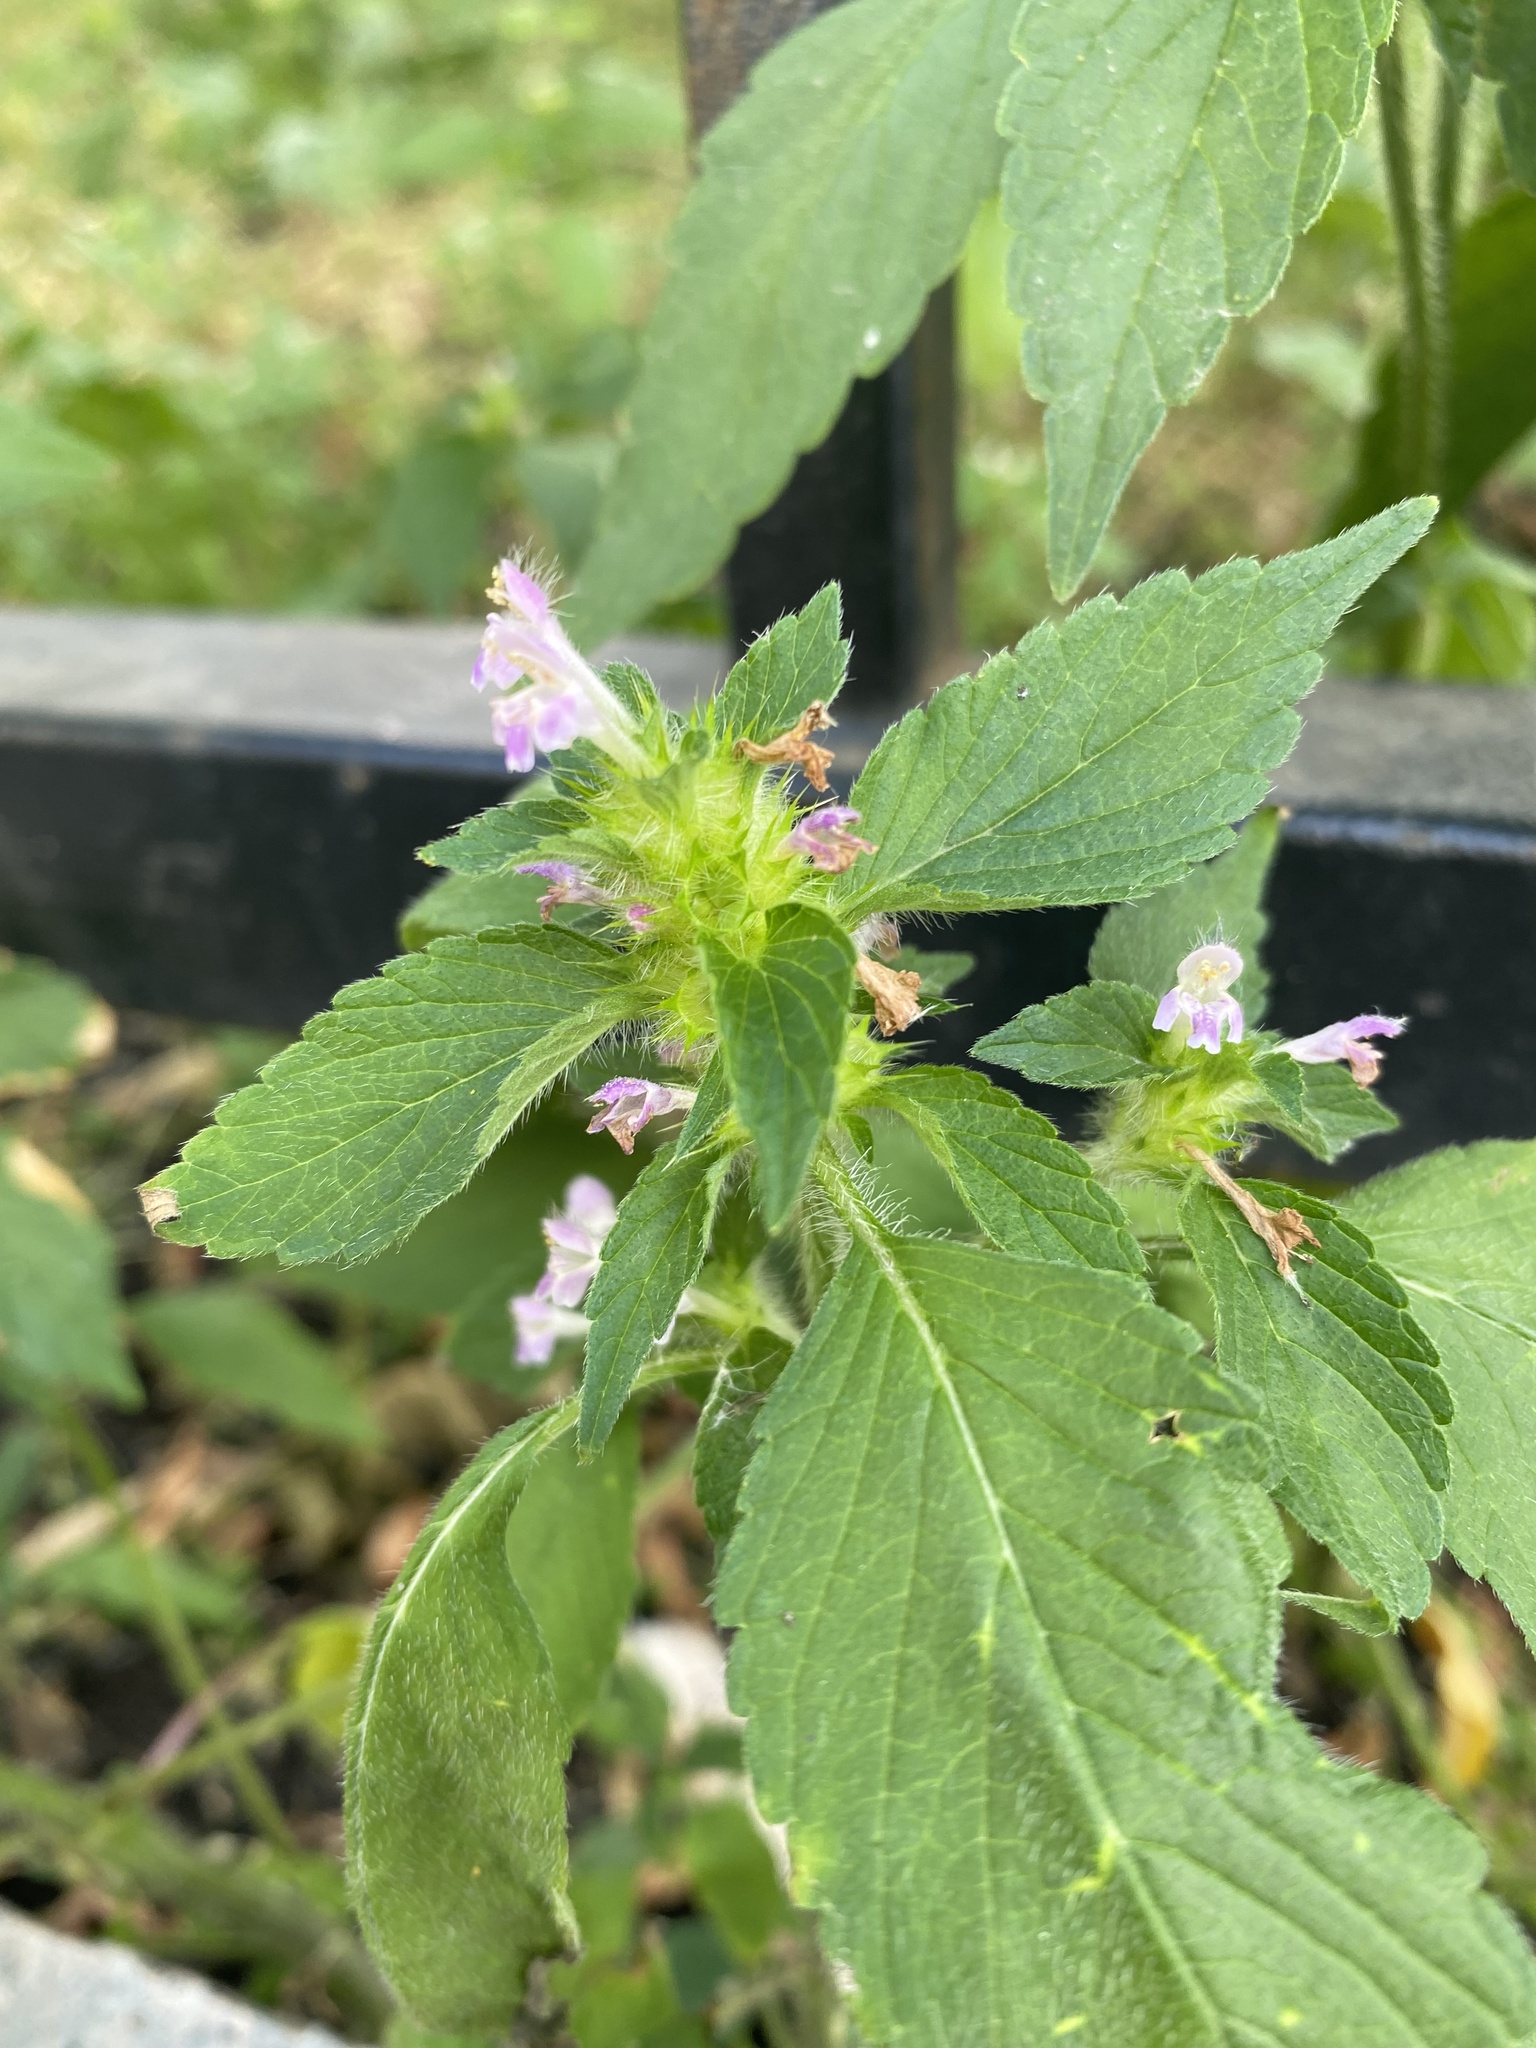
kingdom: Plantae
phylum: Tracheophyta
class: Magnoliopsida
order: Lamiales
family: Lamiaceae
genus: Galeopsis
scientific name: Galeopsis bifida
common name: Bifid hemp-nettle
